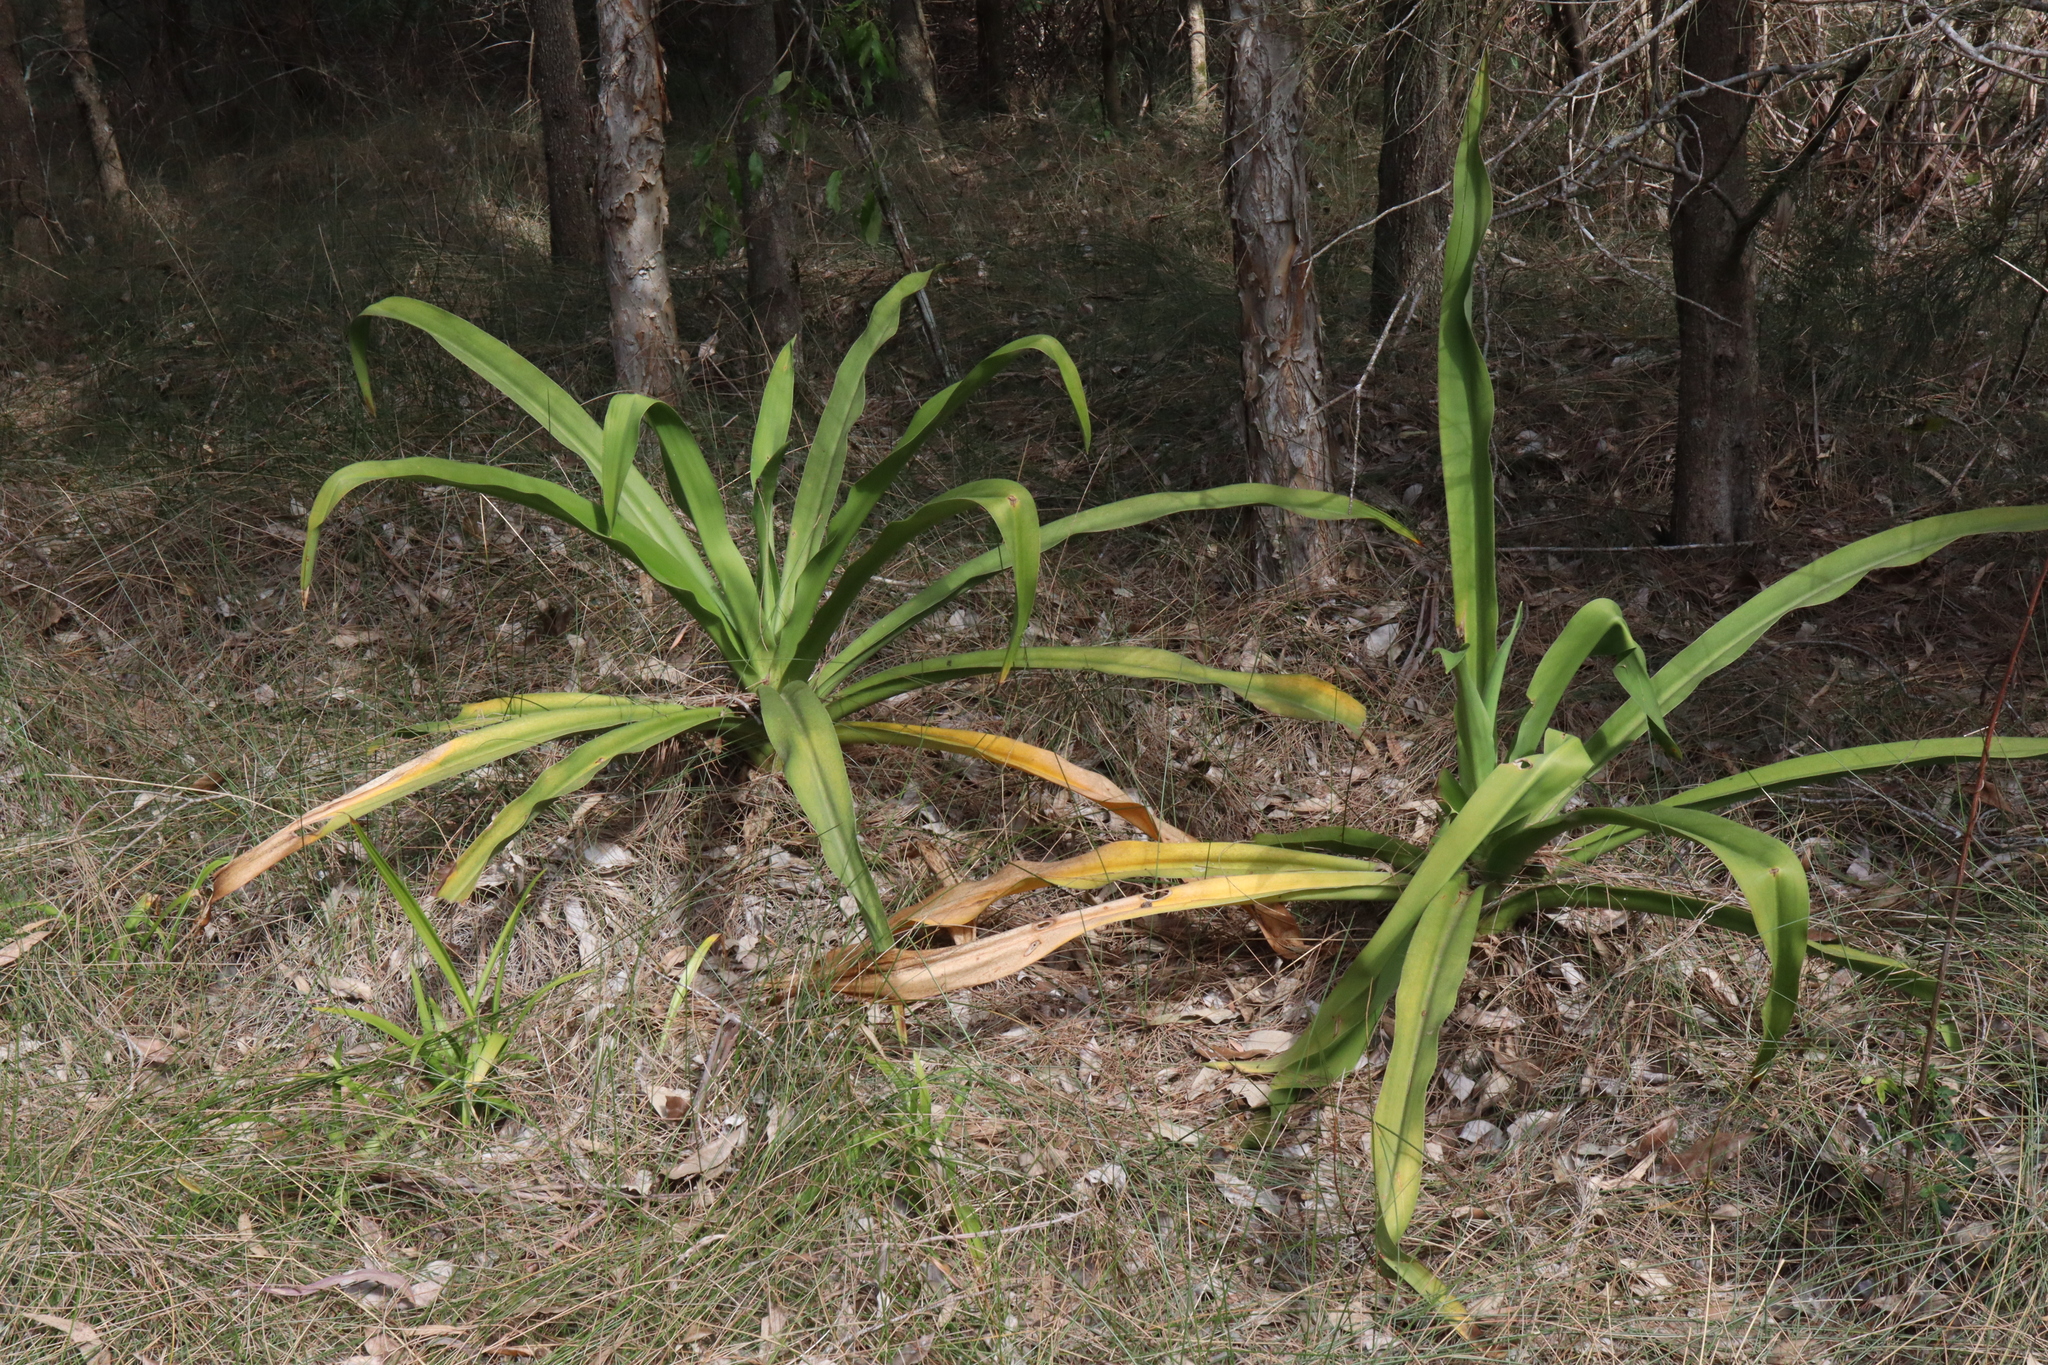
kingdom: Plantae
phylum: Tracheophyta
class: Liliopsida
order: Asparagales
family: Amaryllidaceae
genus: Crinum
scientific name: Crinum pedunculatum
